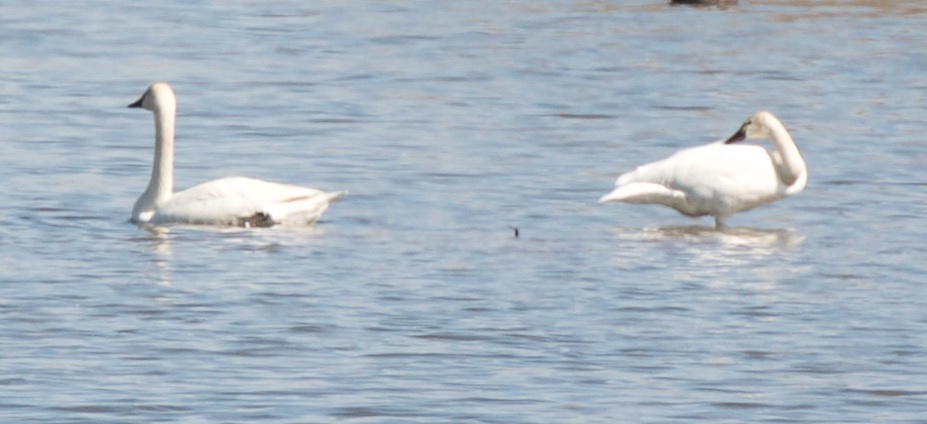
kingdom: Animalia
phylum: Chordata
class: Aves
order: Anseriformes
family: Anatidae
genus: Cygnus
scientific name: Cygnus columbianus
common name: Tundra swan
